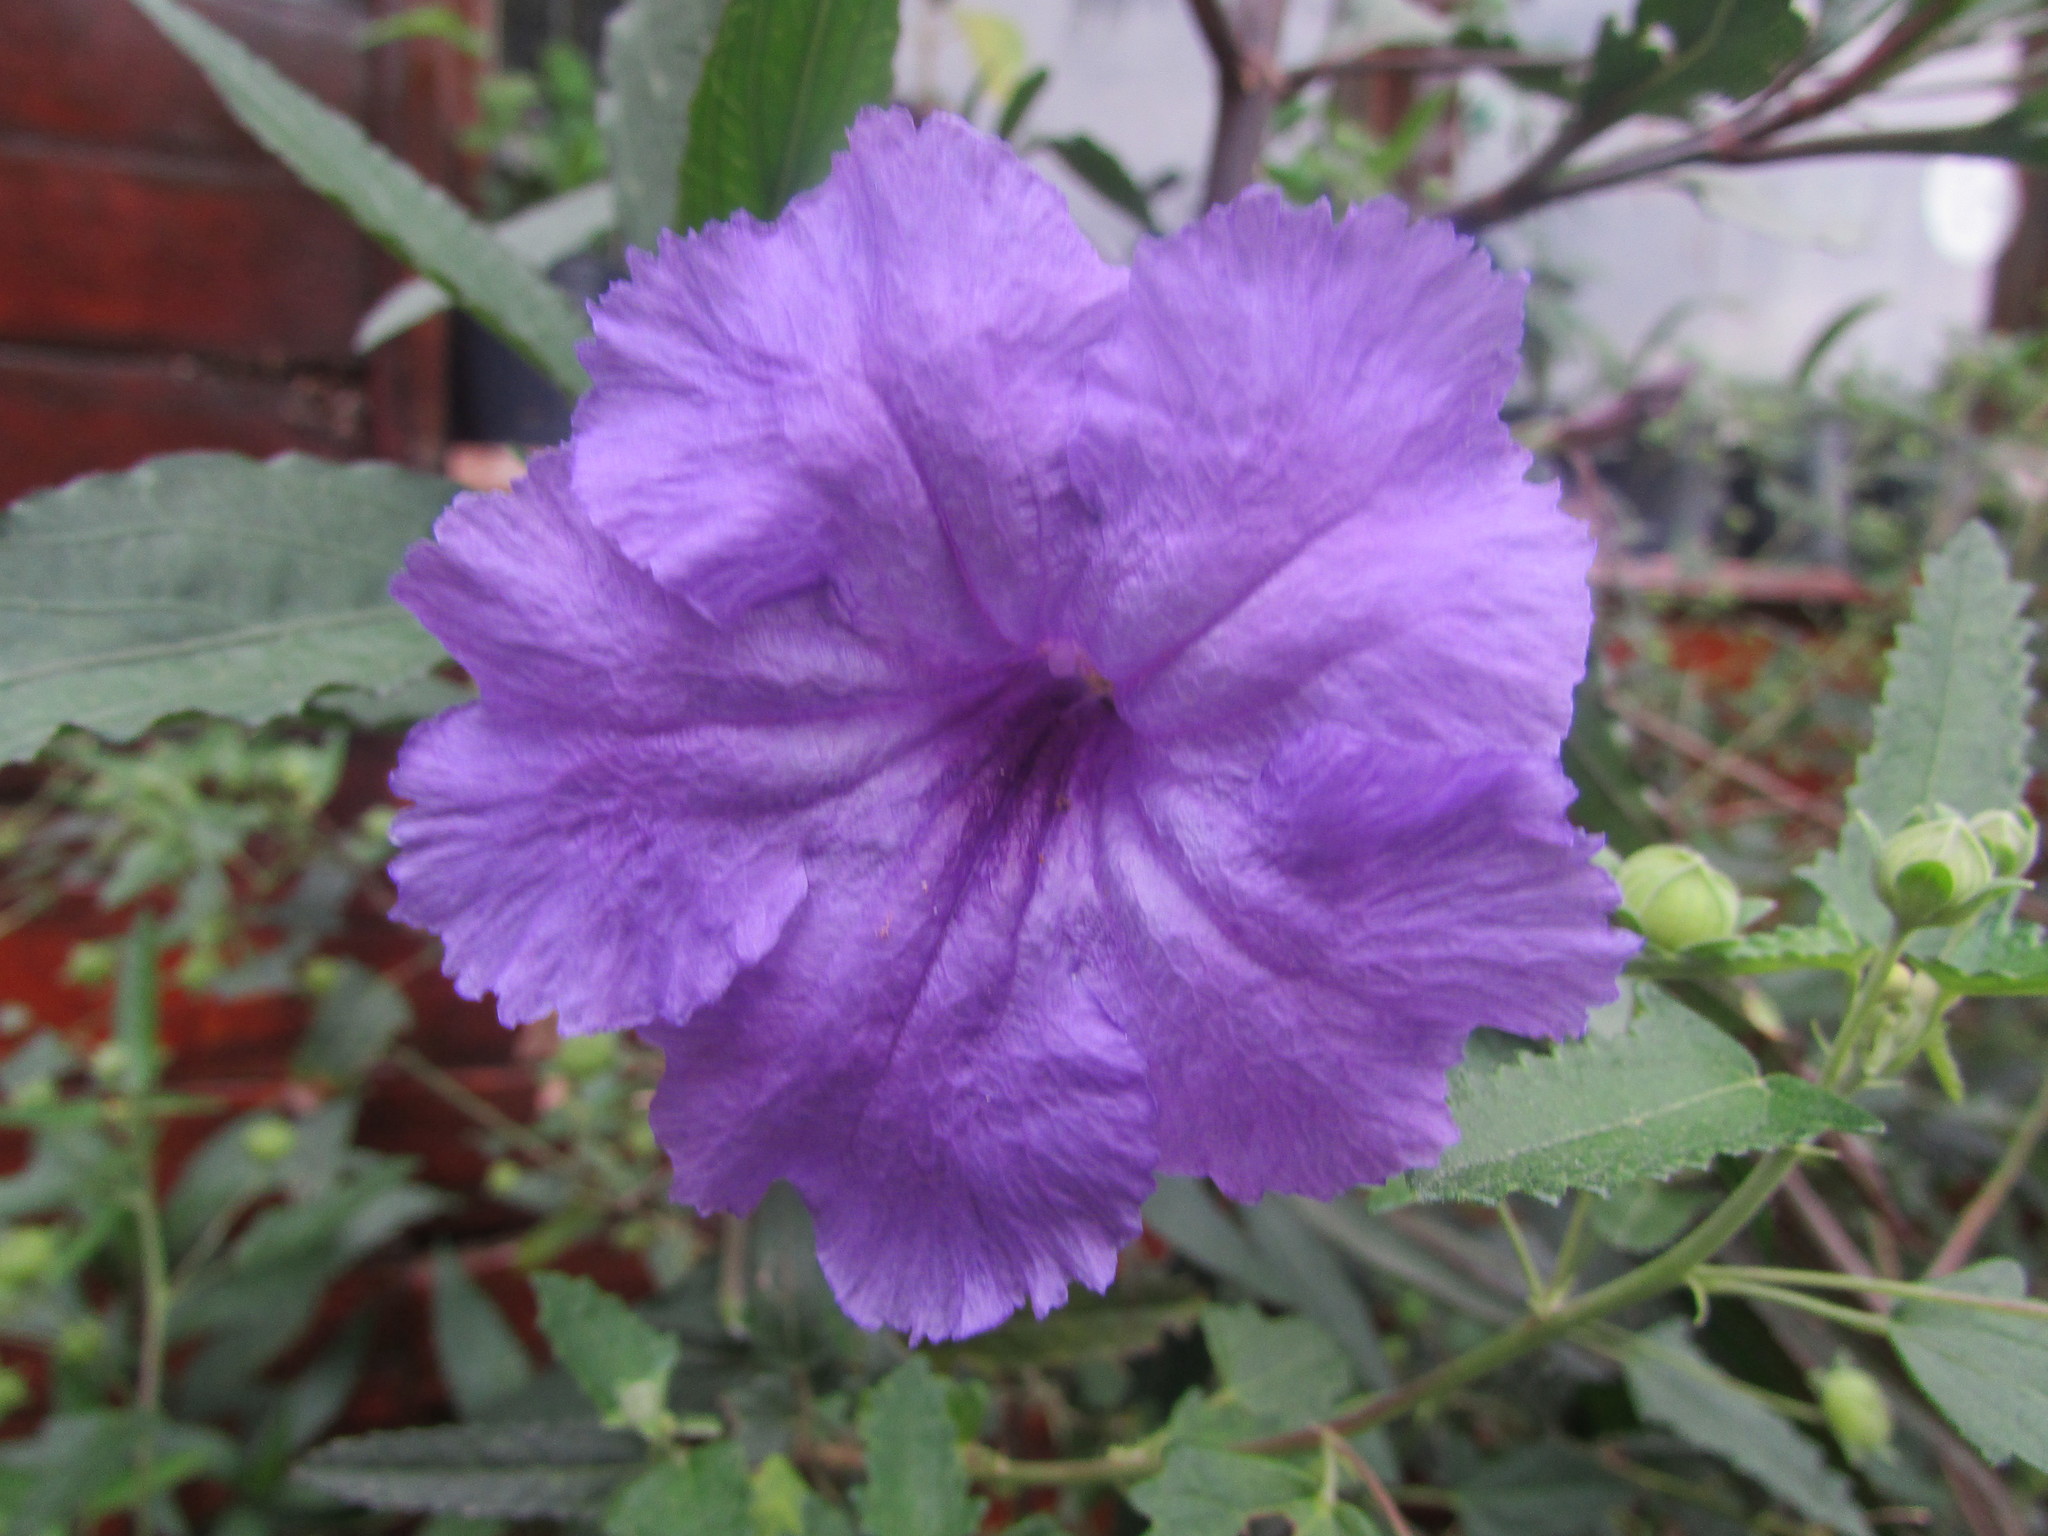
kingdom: Plantae
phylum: Tracheophyta
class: Magnoliopsida
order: Lamiales
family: Acanthaceae
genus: Ruellia
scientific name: Ruellia simplex
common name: Softseed wild petunia
